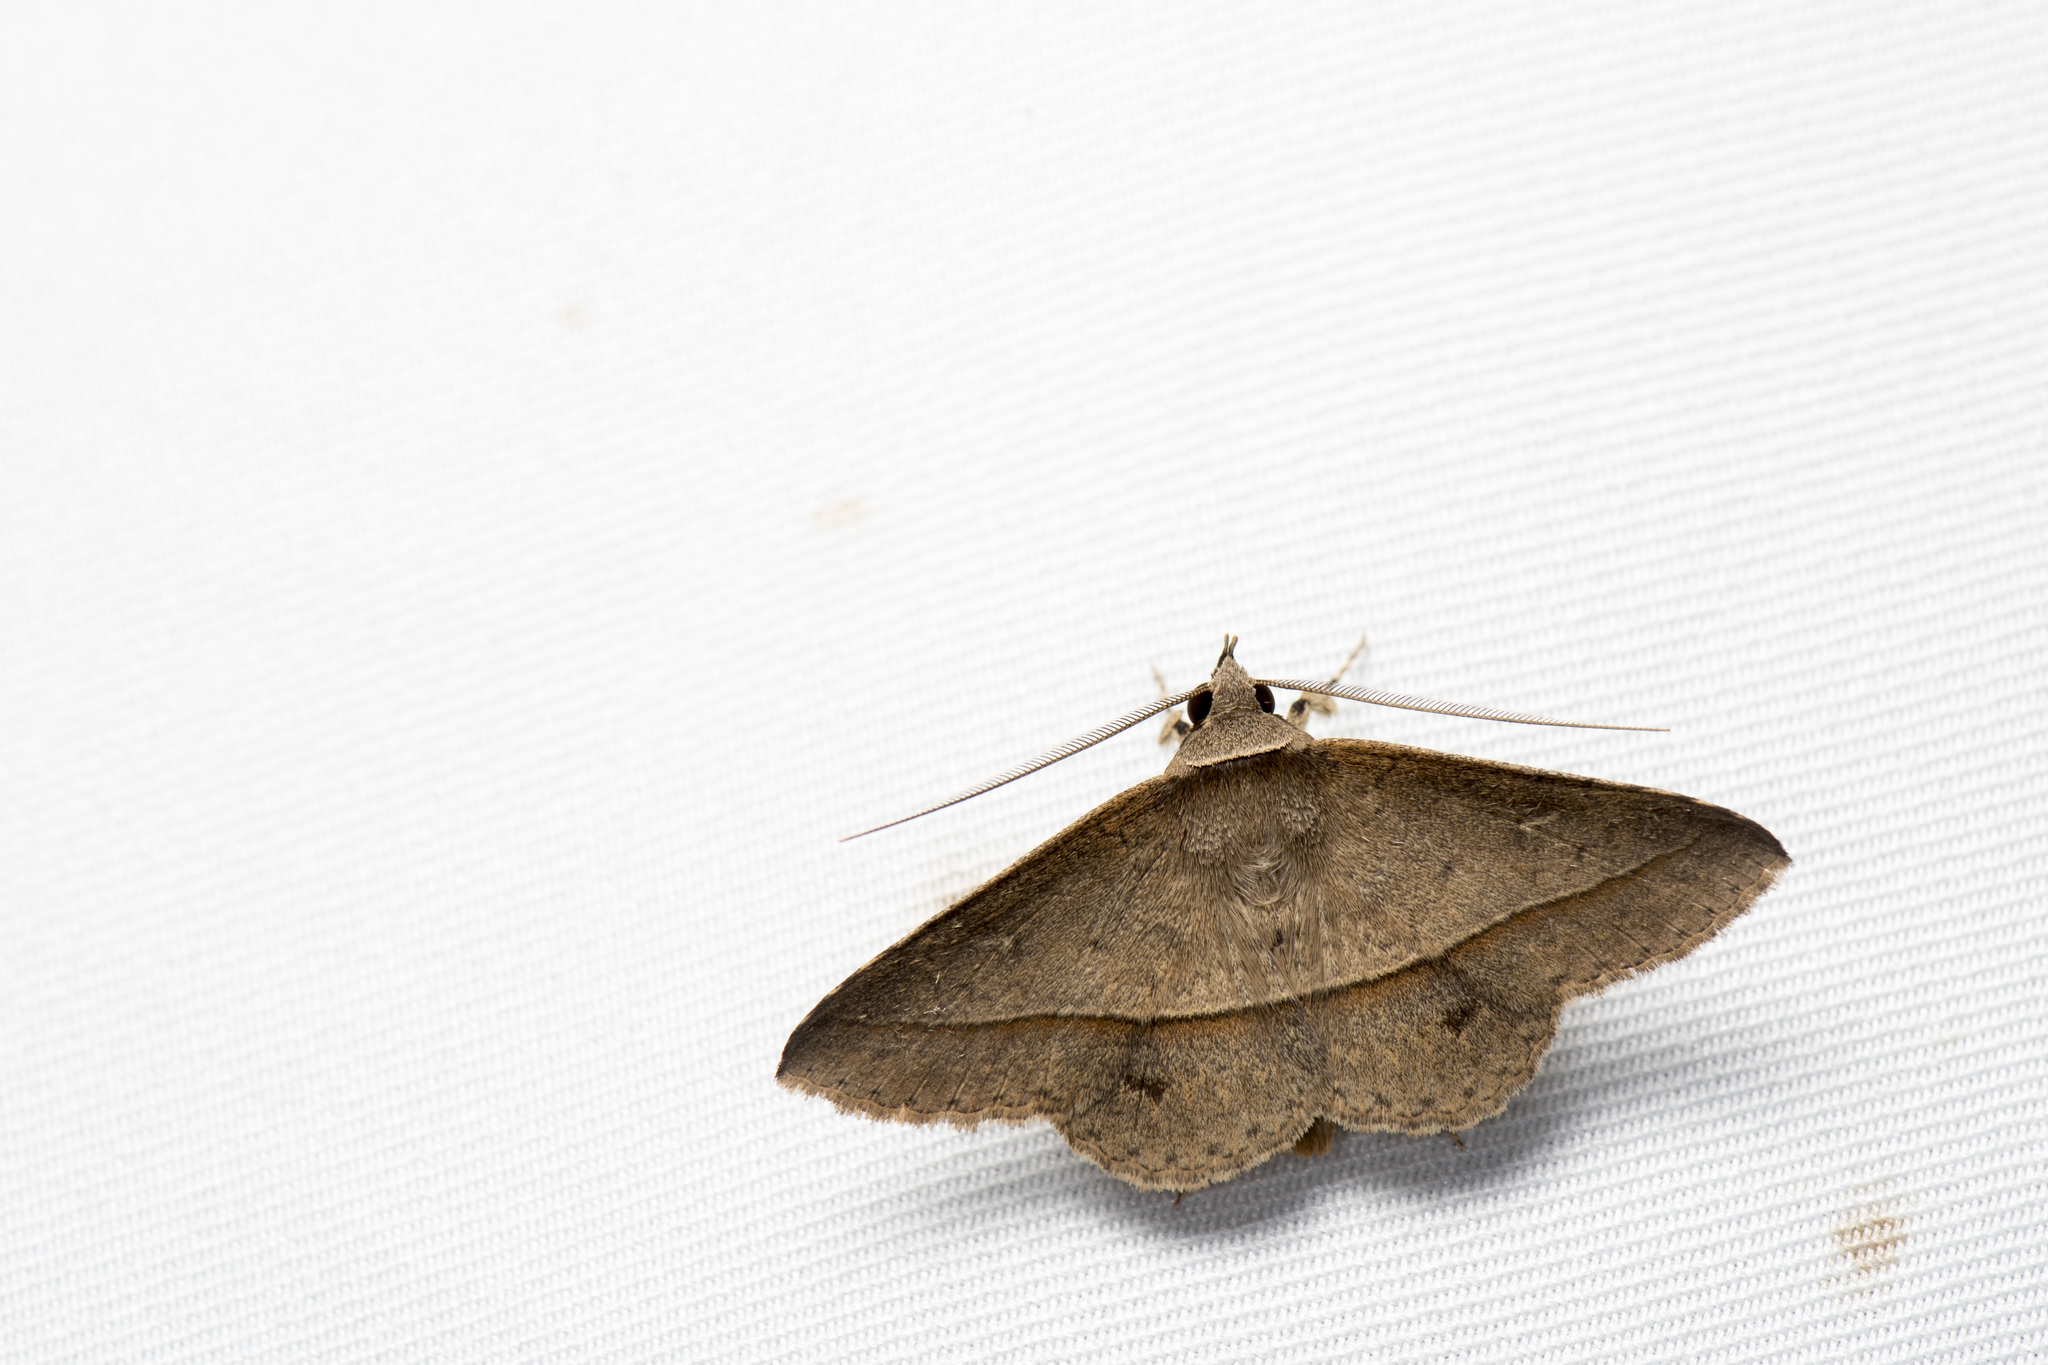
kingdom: Animalia
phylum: Arthropoda
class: Insecta
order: Lepidoptera
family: Erebidae
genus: Hypospila
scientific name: Hypospila creberrima
